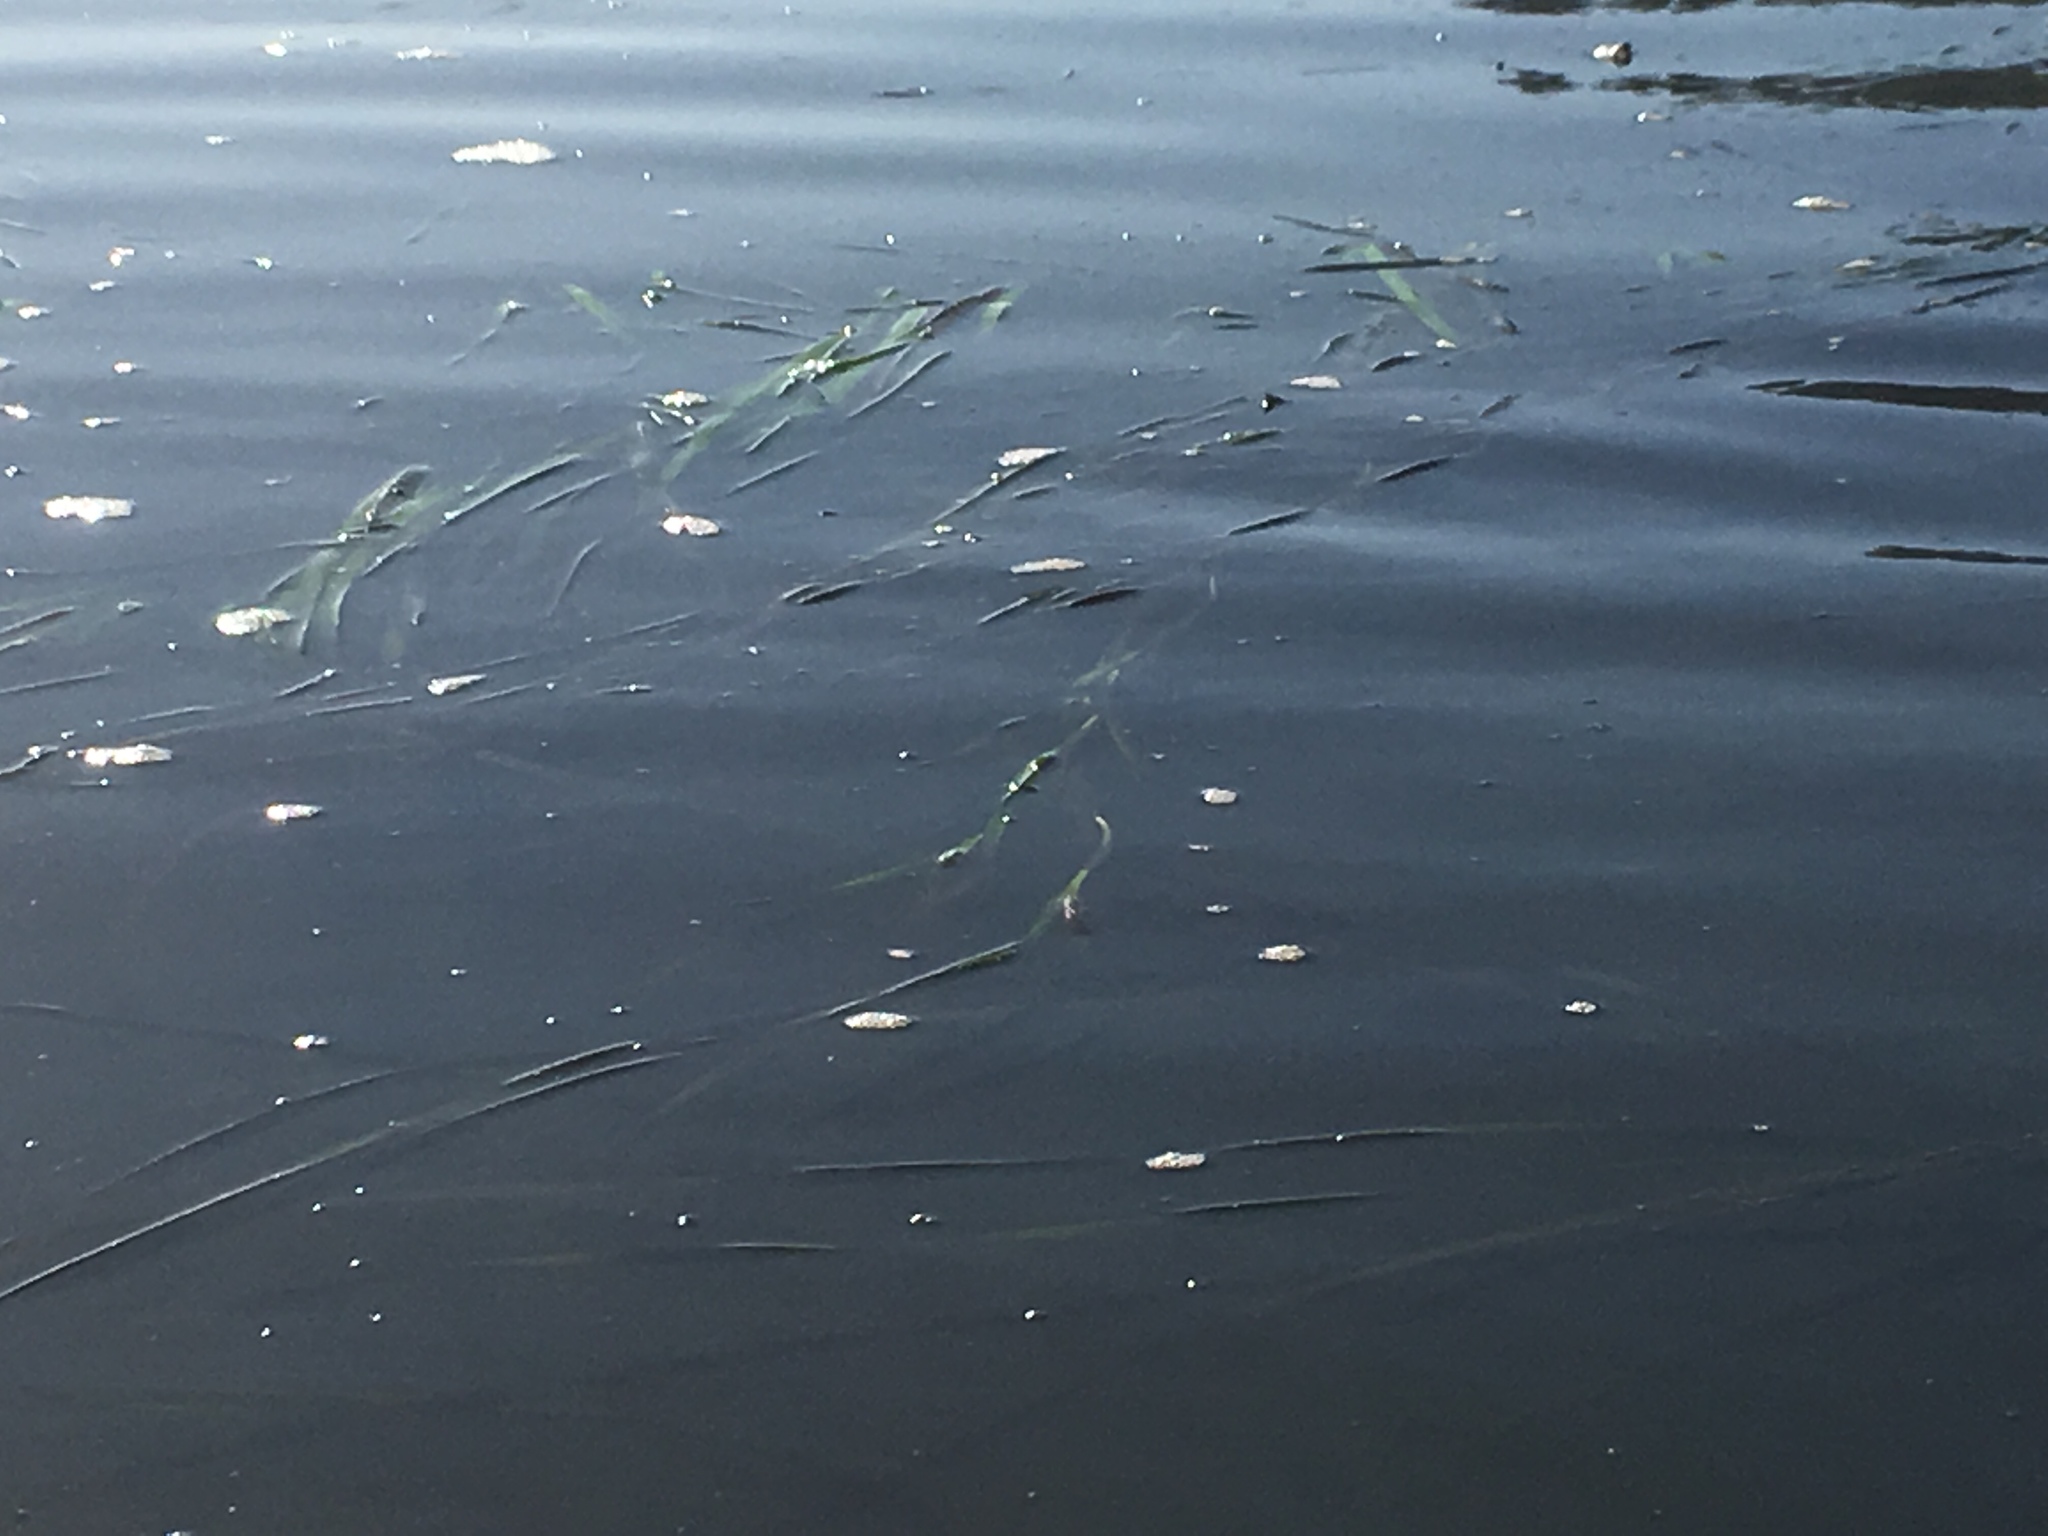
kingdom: Plantae
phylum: Tracheophyta
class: Liliopsida
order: Alismatales
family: Zosteraceae
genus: Zostera
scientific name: Zostera marina
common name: Eelgrass
